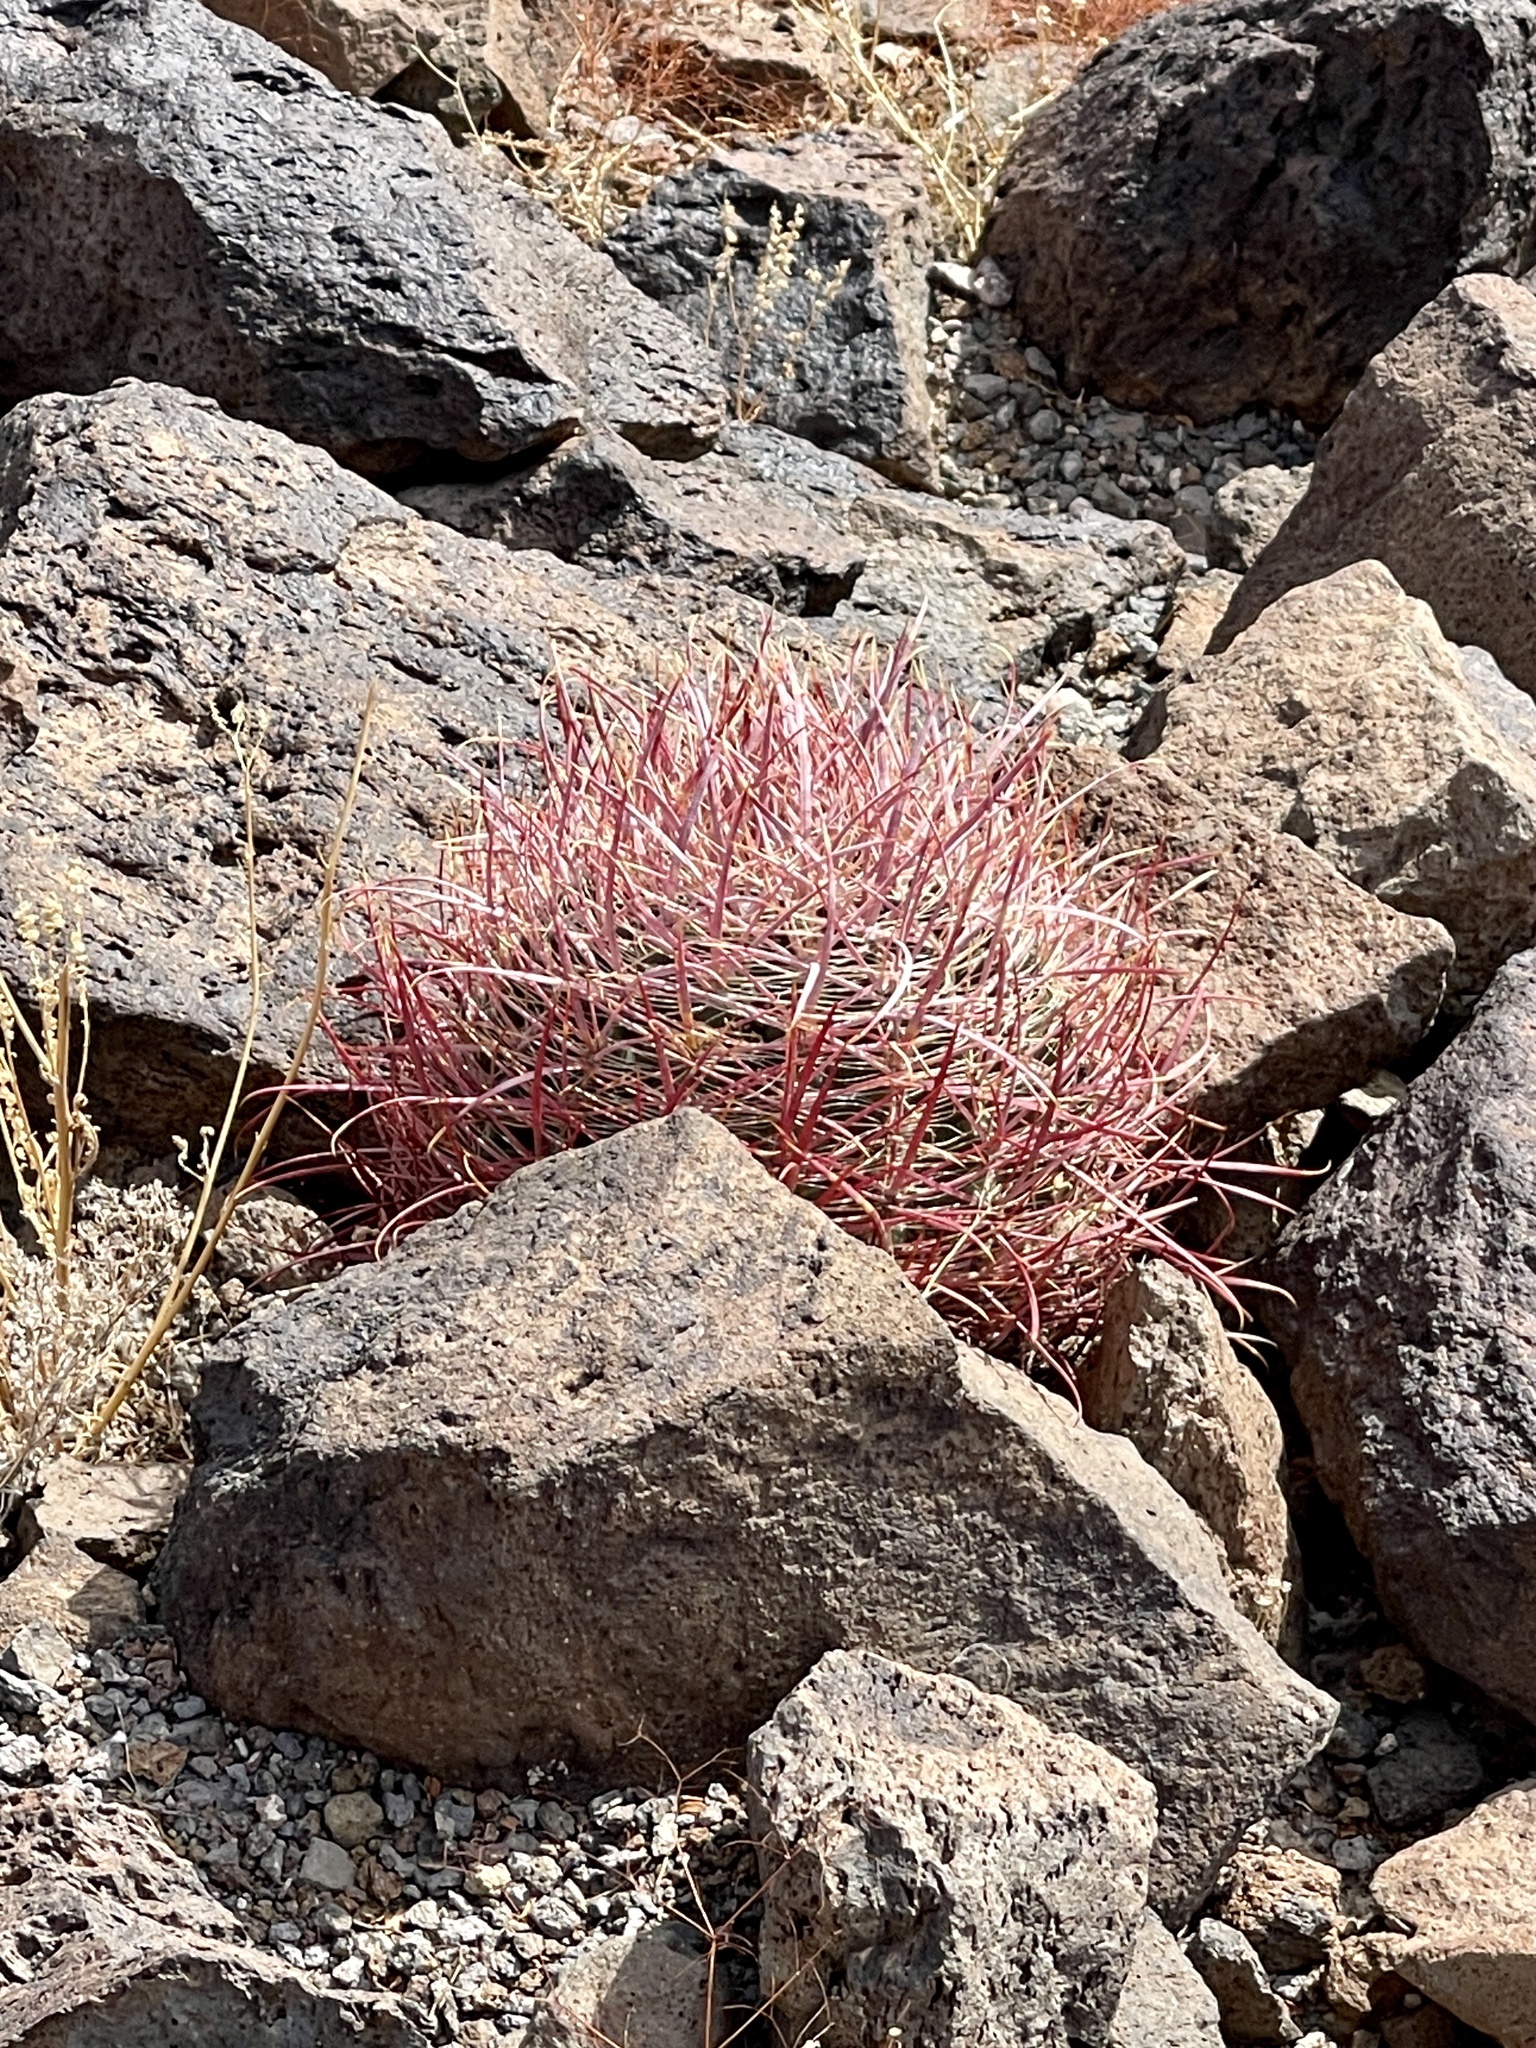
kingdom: Plantae
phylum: Tracheophyta
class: Magnoliopsida
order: Caryophyllales
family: Cactaceae
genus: Ferocactus
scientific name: Ferocactus cylindraceus
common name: California barrel cactus
